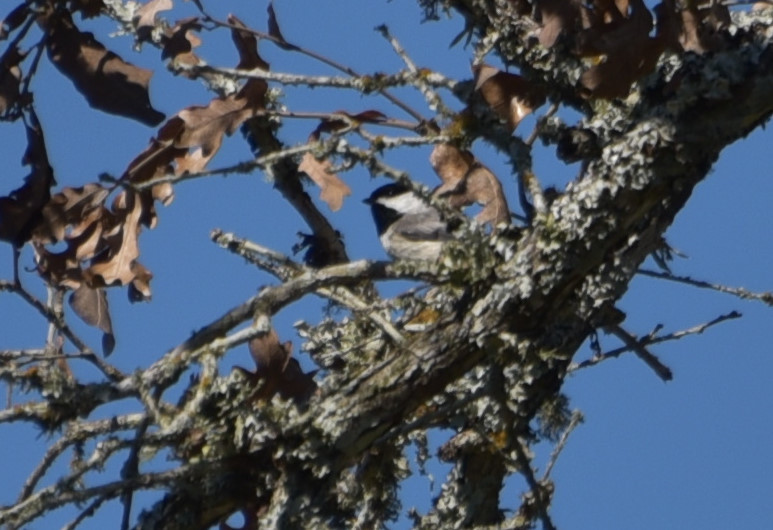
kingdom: Animalia
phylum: Chordata
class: Aves
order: Passeriformes
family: Paridae
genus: Poecile
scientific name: Poecile carolinensis
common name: Carolina chickadee
